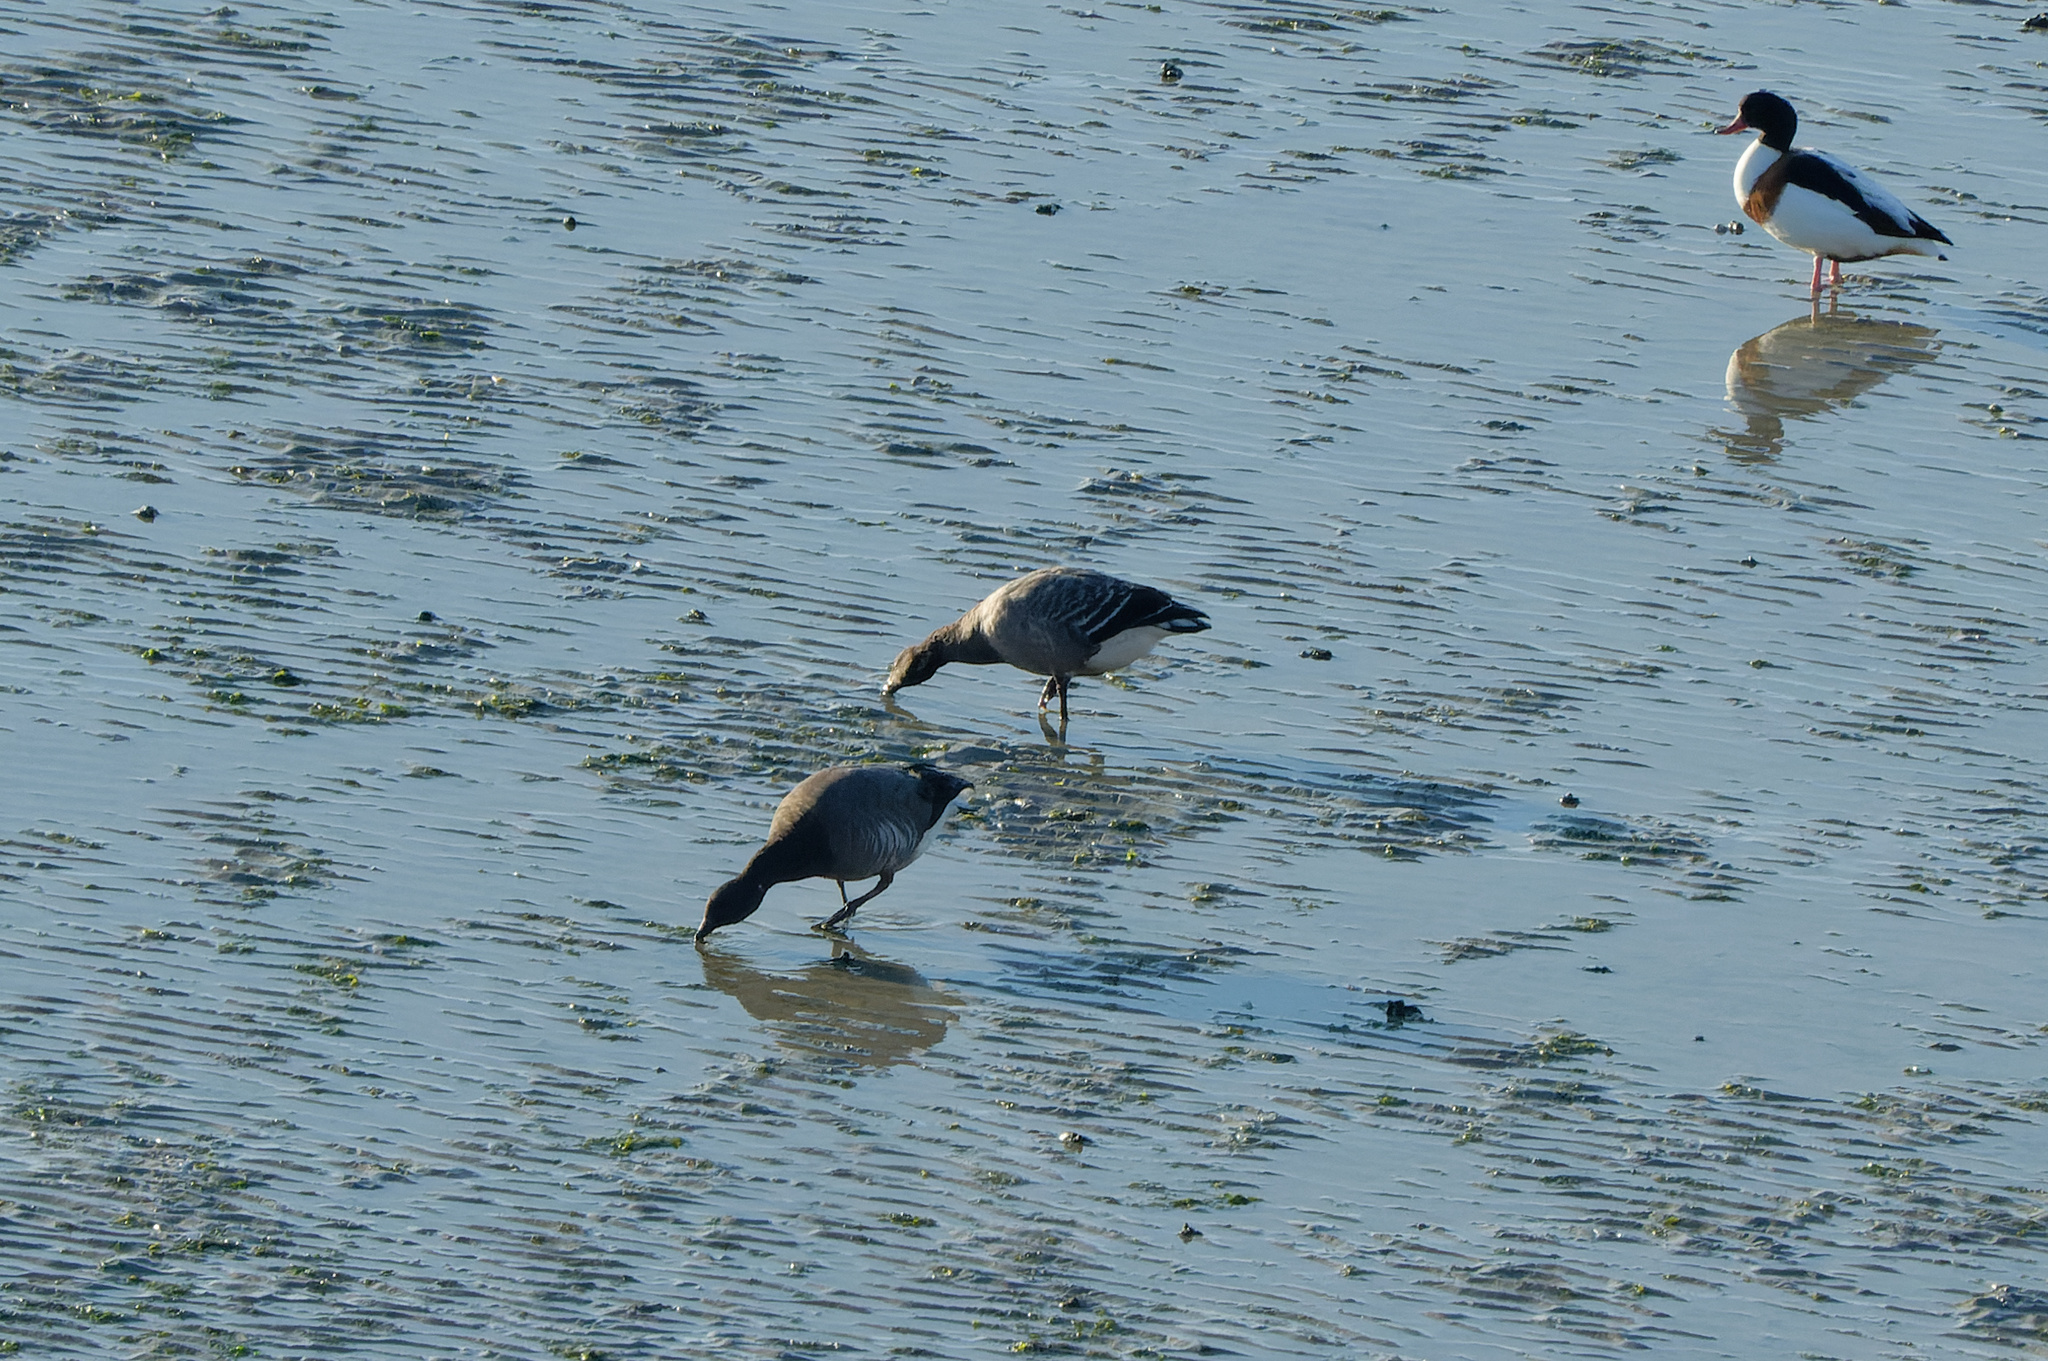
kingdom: Animalia
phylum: Chordata
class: Aves
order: Anseriformes
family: Anatidae
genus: Branta
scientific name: Branta bernicla
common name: Brant goose
